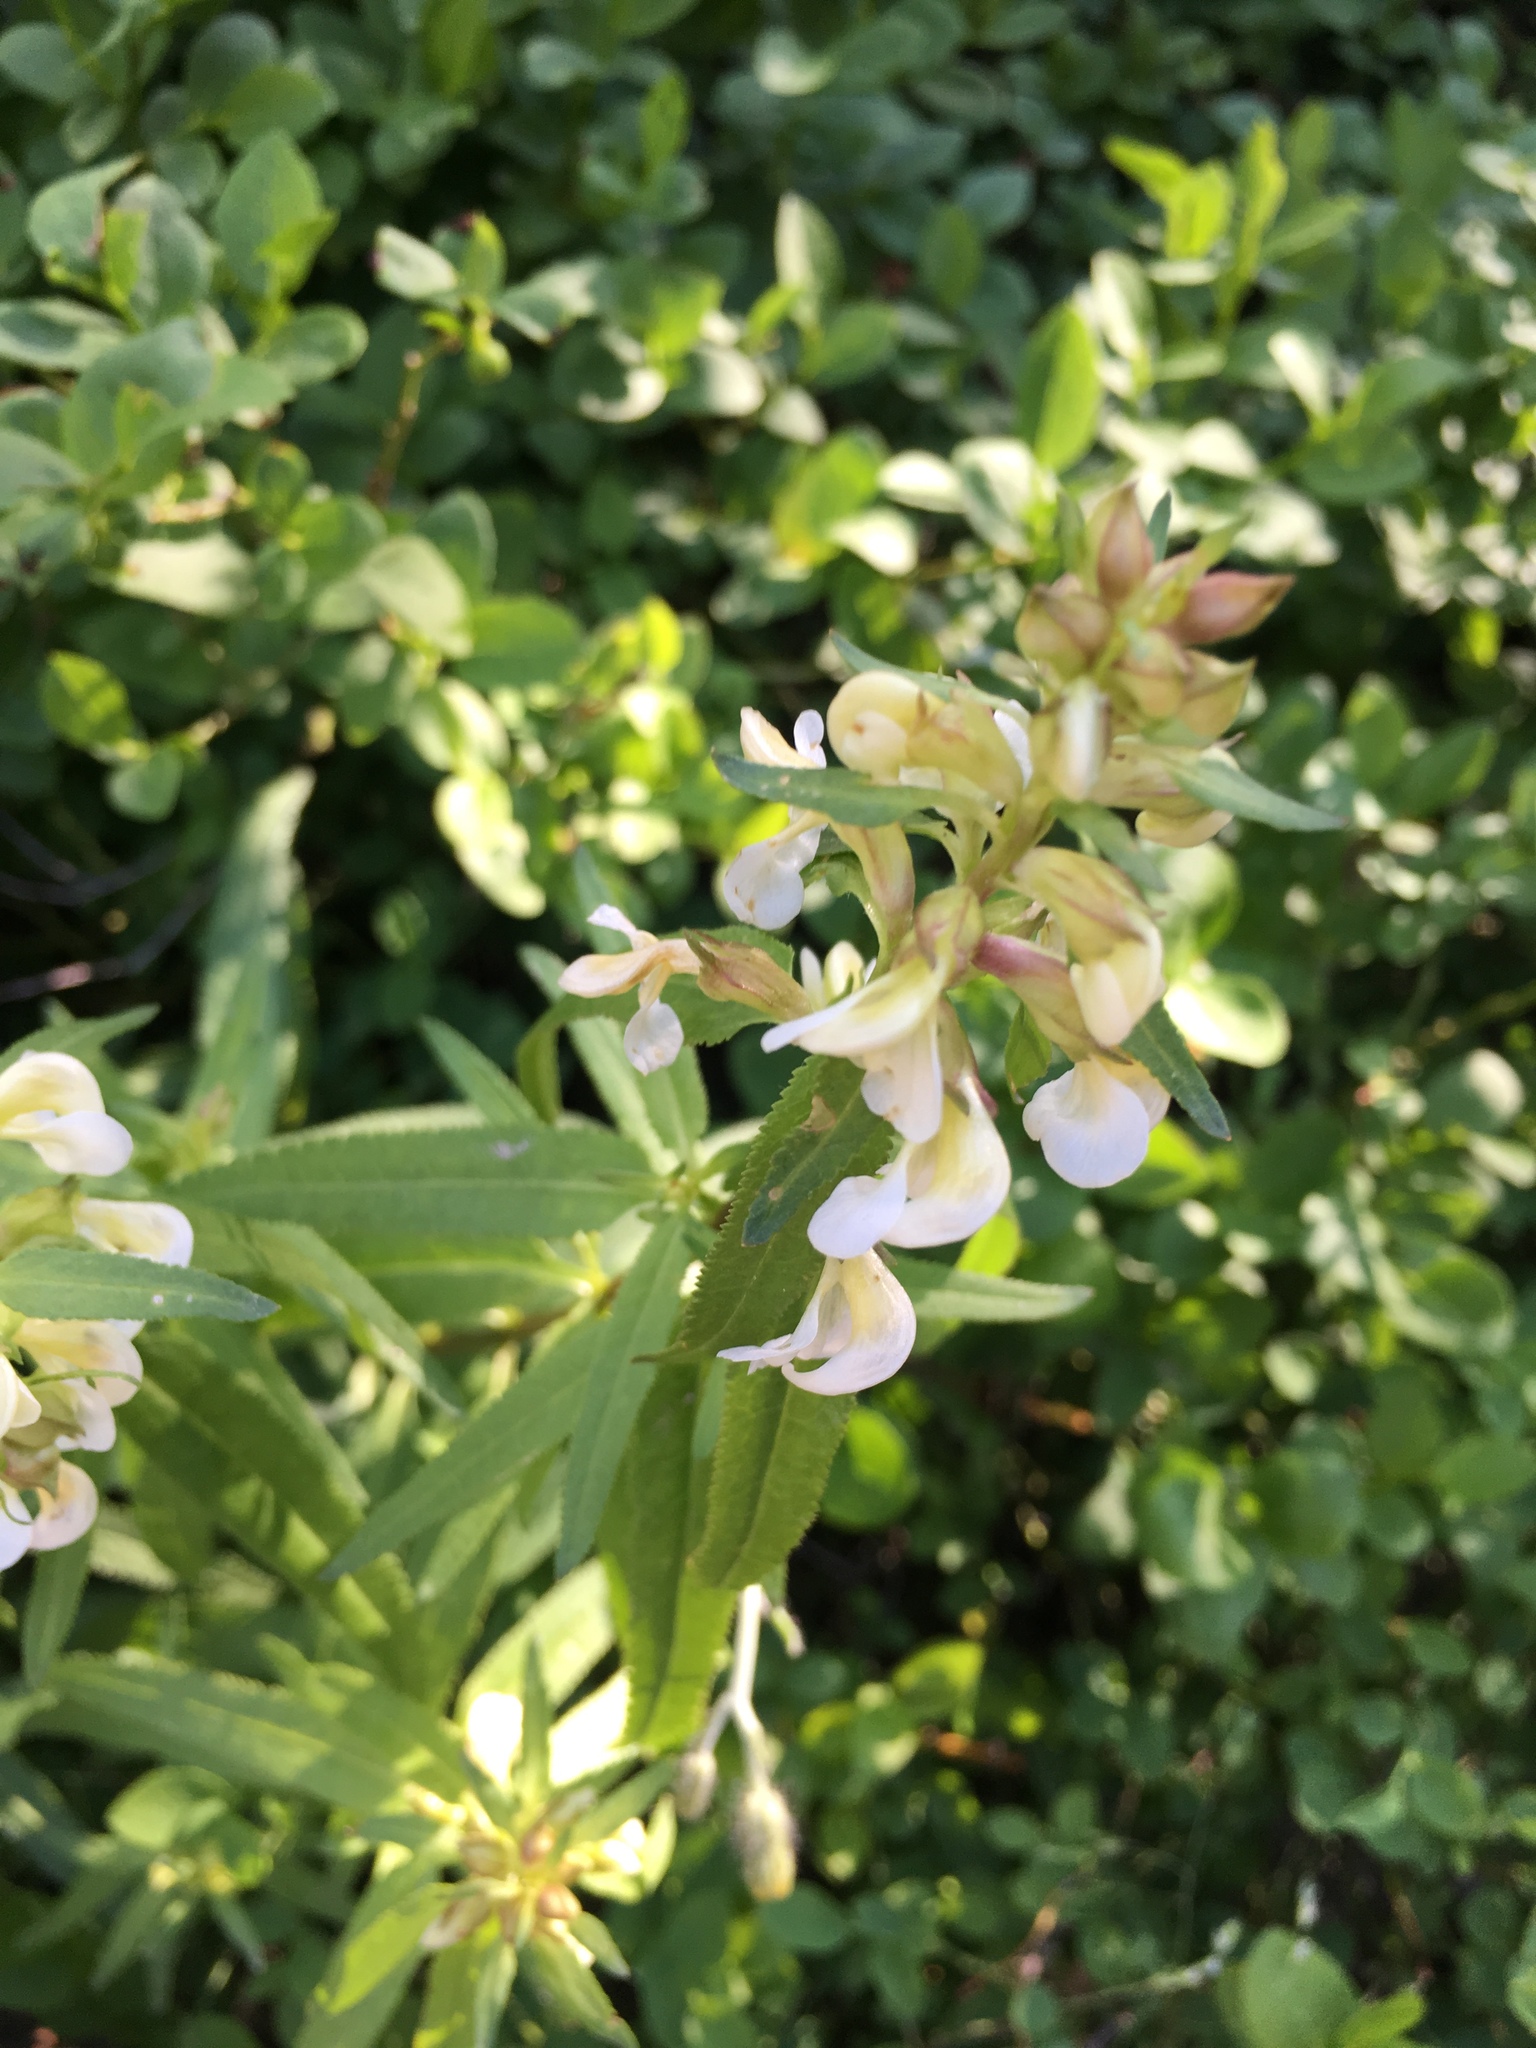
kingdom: Plantae
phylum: Tracheophyta
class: Magnoliopsida
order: Lamiales
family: Orobanchaceae
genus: Pedicularis
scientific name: Pedicularis racemosa
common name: Leafy lousewort
